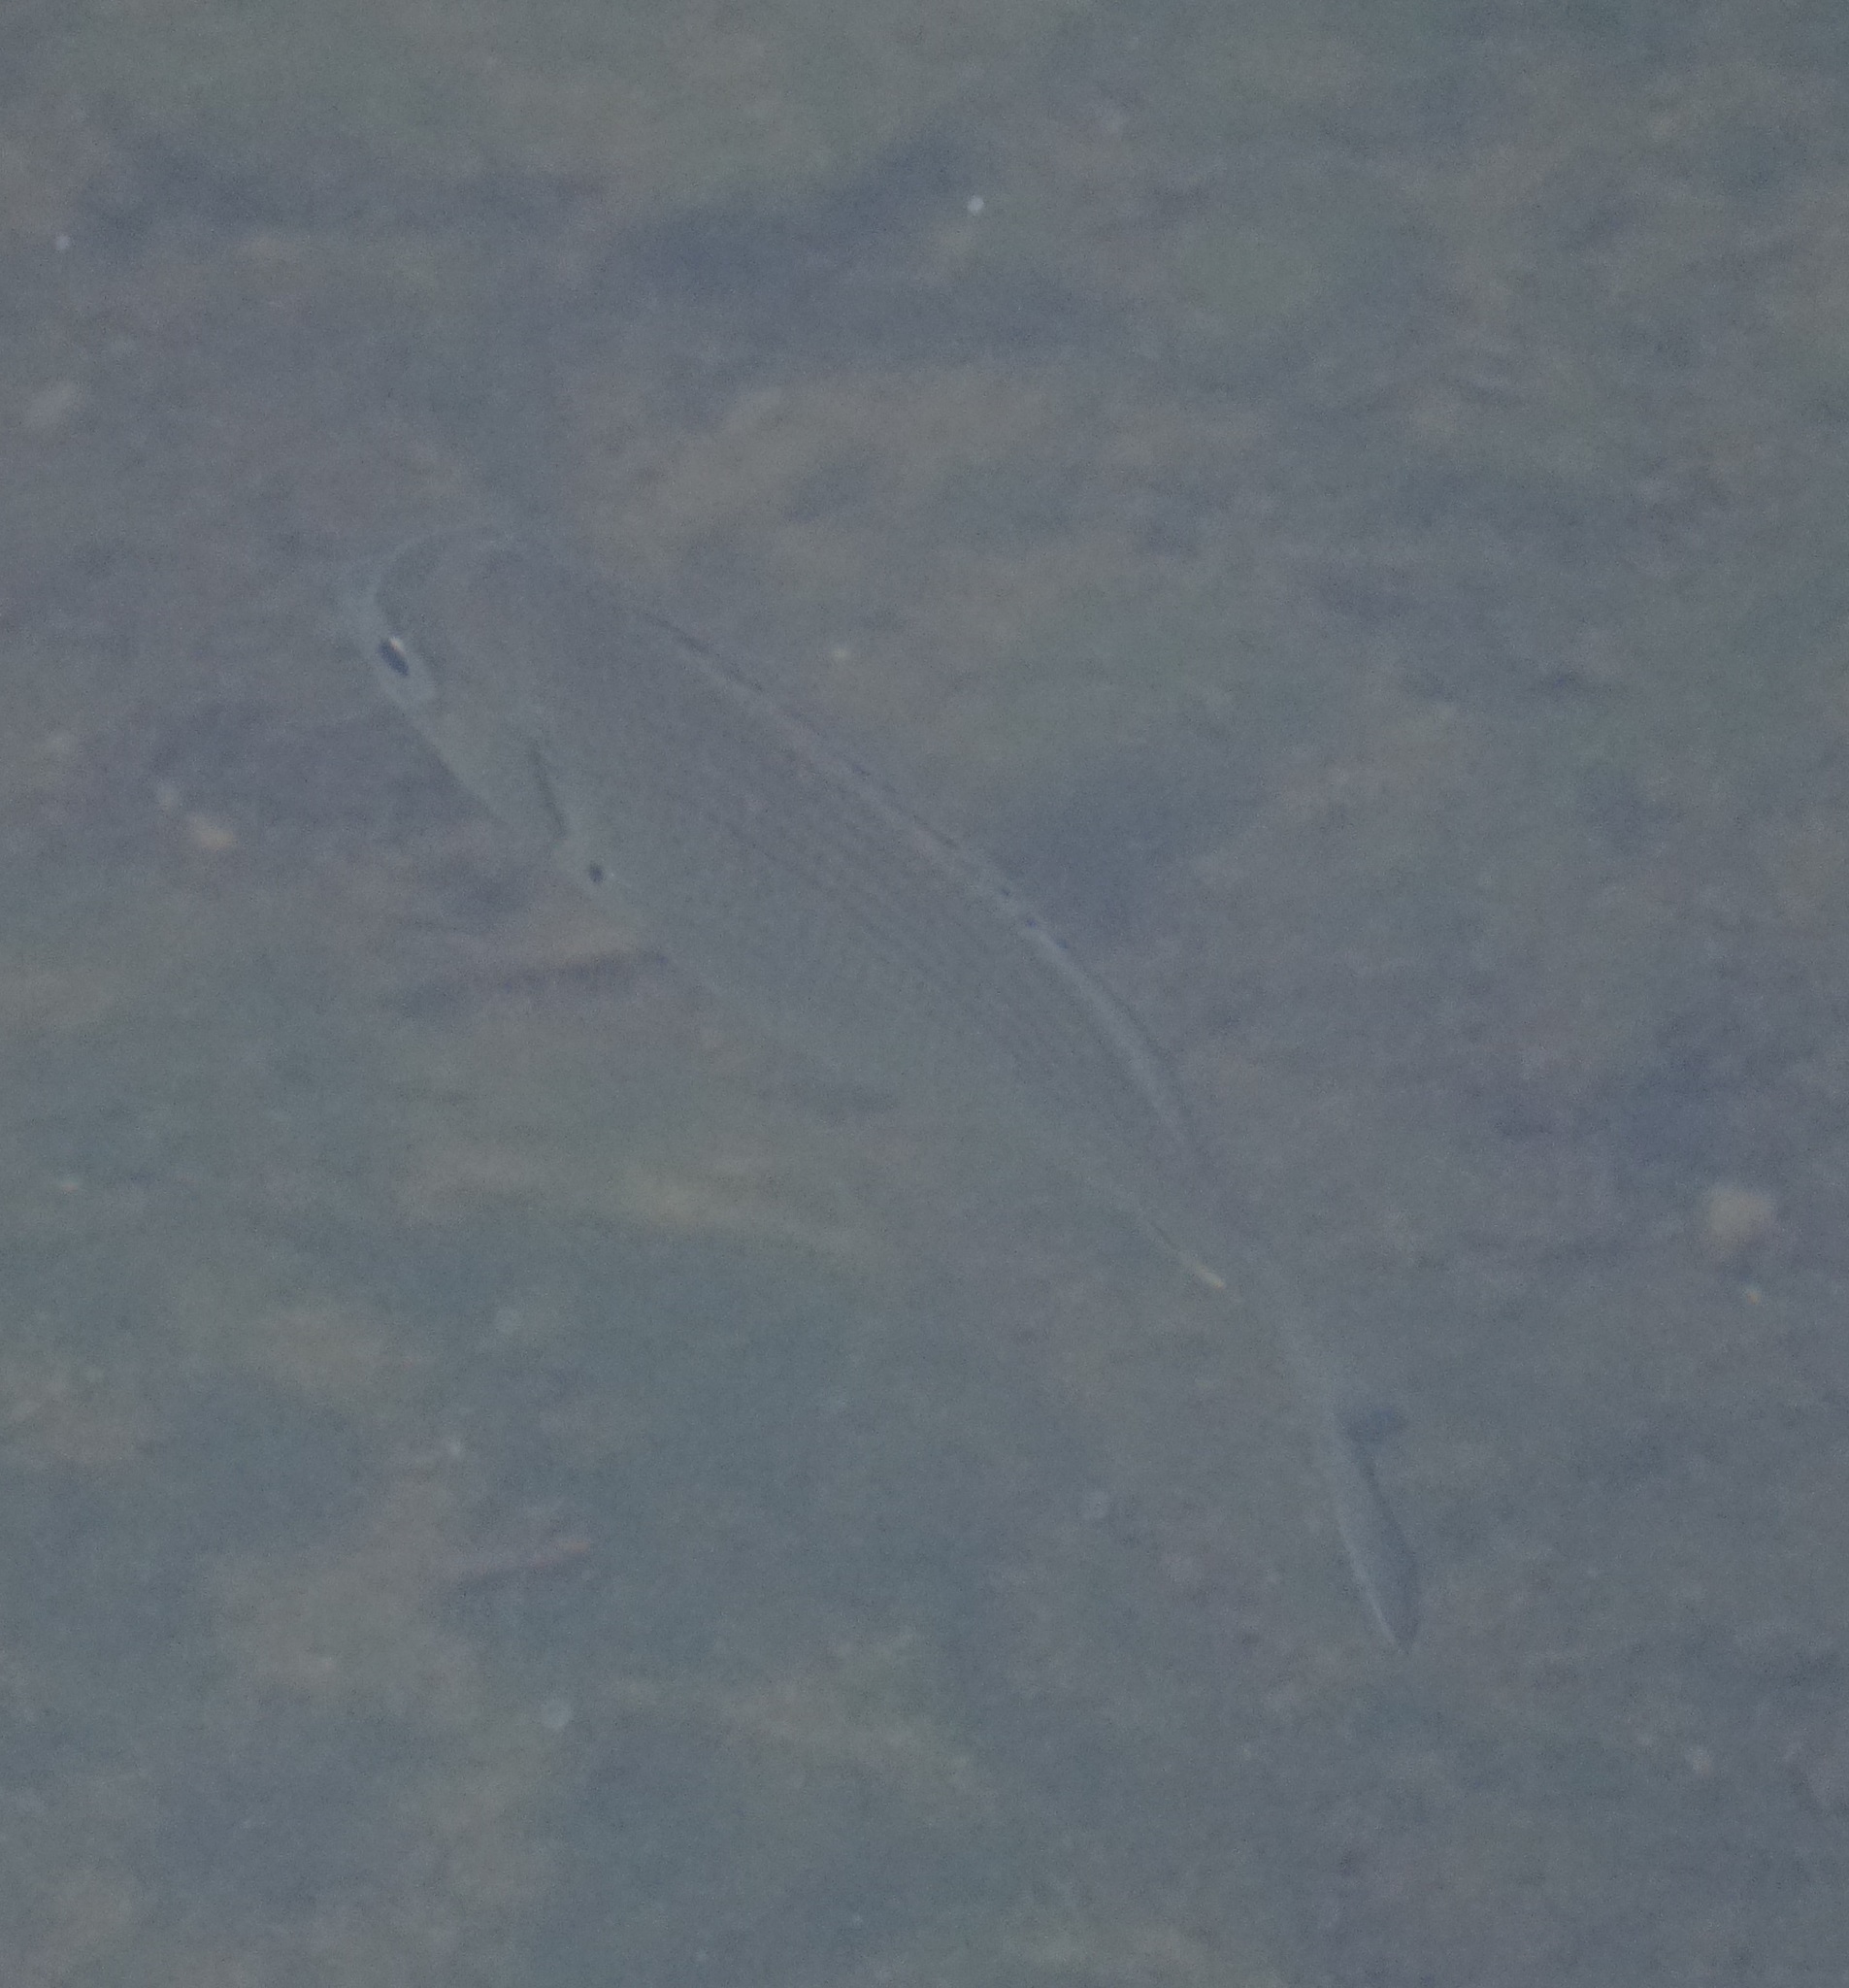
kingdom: Animalia
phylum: Chordata
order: Perciformes
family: Sparidae
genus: Acanthopagrus
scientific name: Acanthopagrus australis
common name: Surf bream
